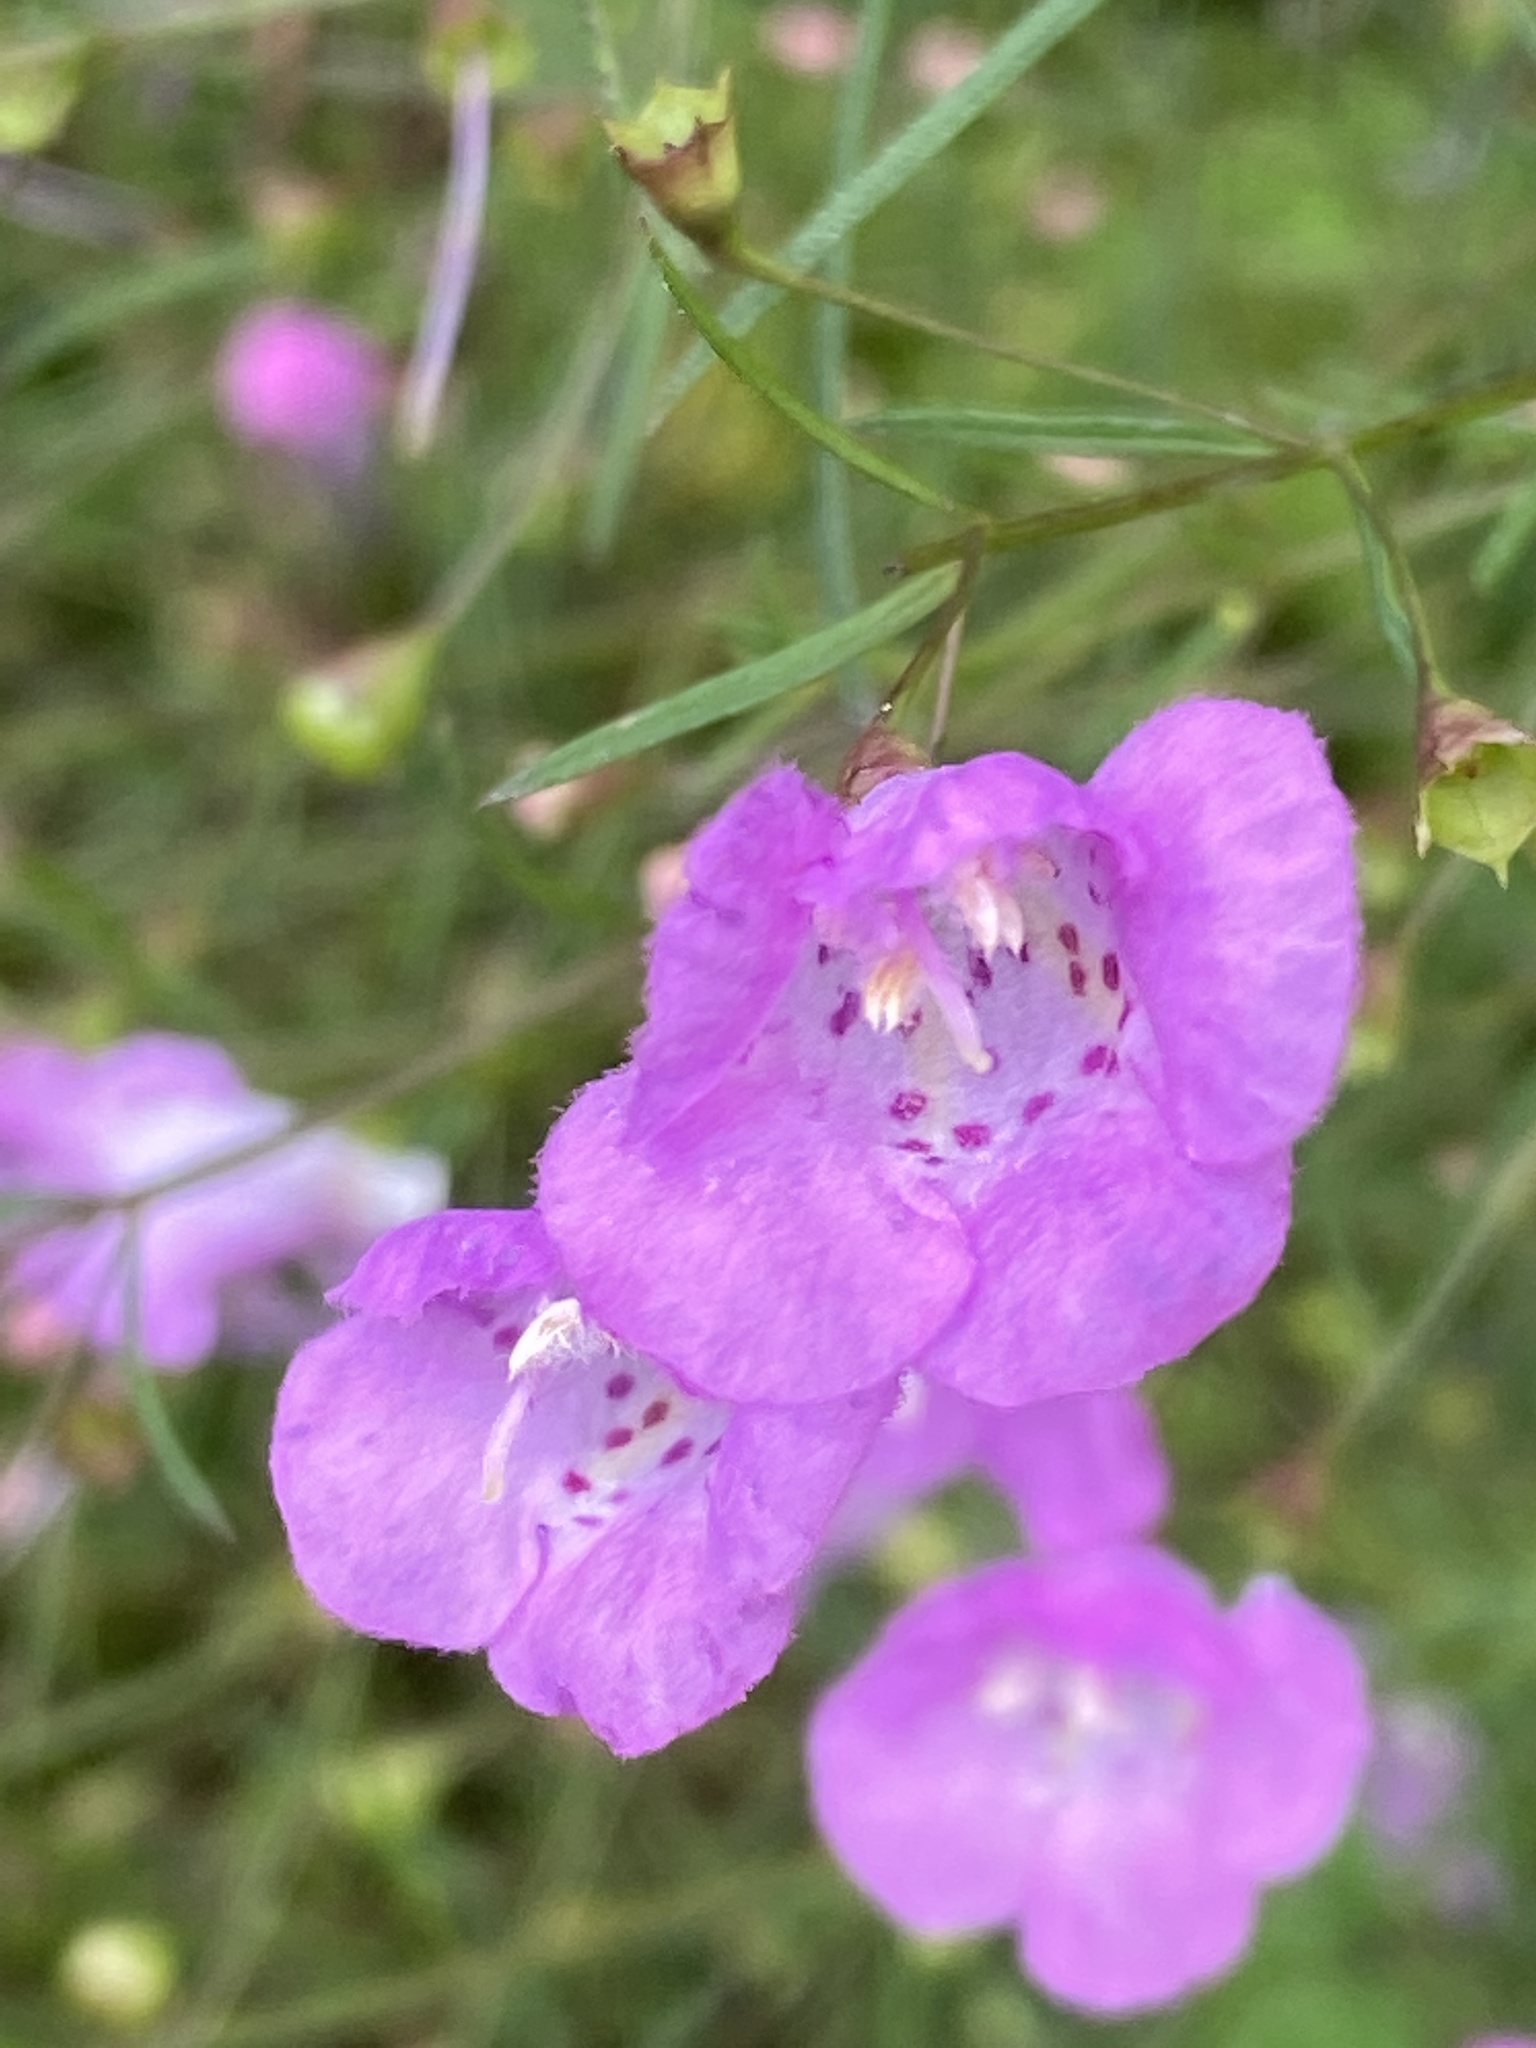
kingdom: Plantae
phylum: Tracheophyta
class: Magnoliopsida
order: Lamiales
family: Orobanchaceae
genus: Agalinis
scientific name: Agalinis tenuifolia
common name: Slender agalinis
